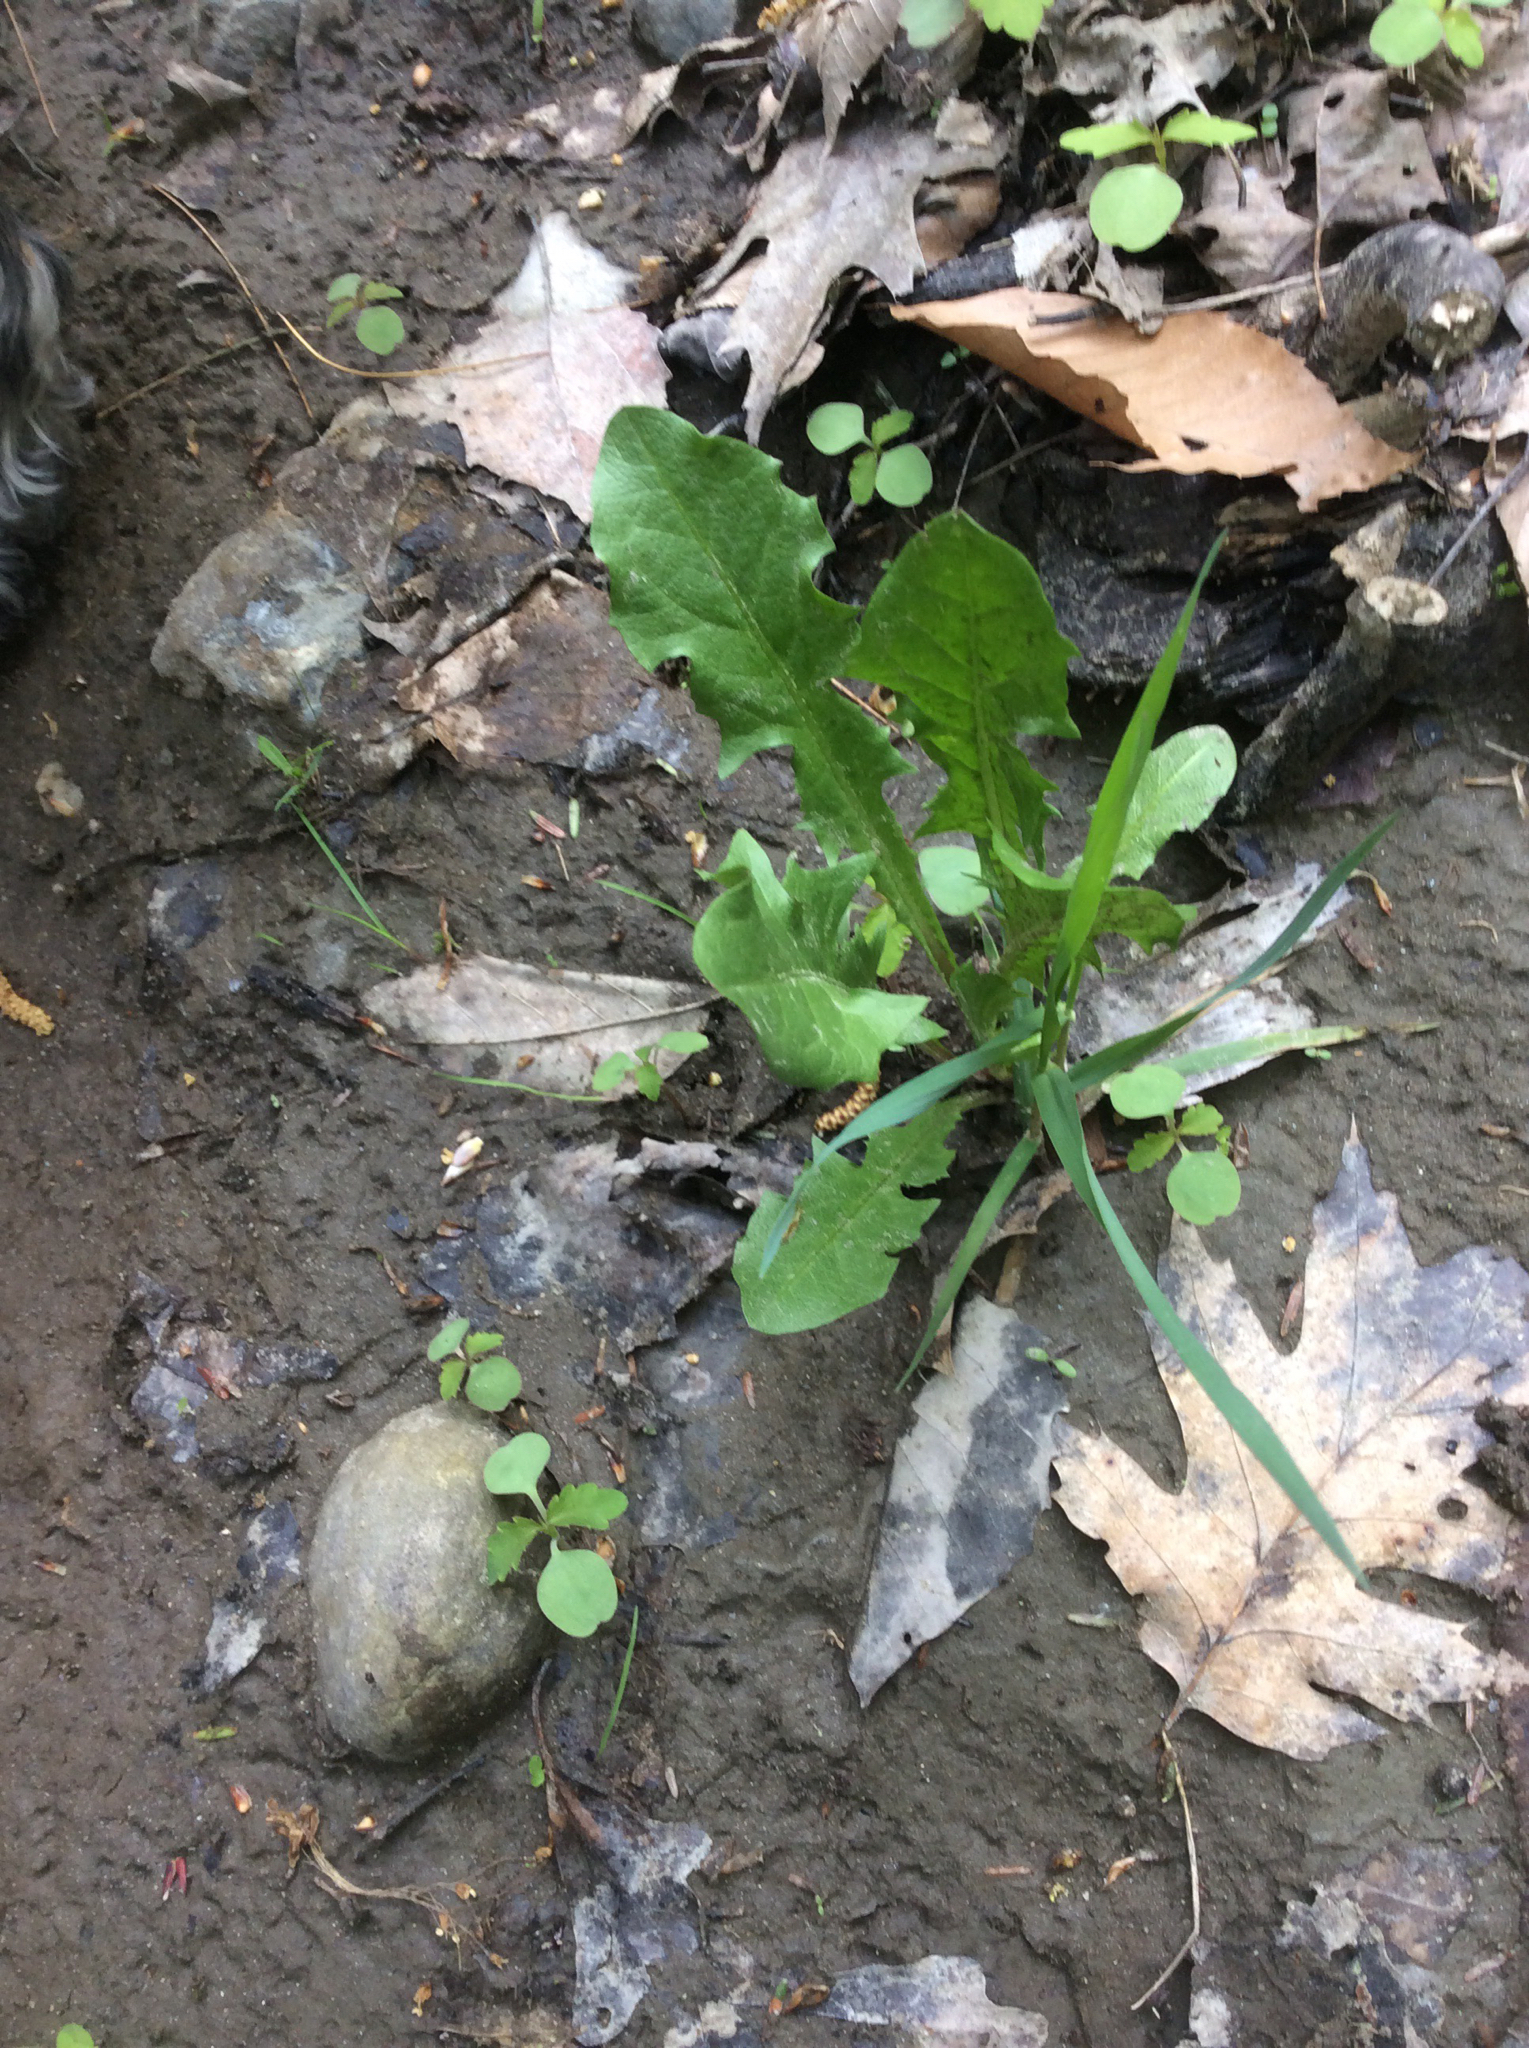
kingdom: Plantae
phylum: Tracheophyta
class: Magnoliopsida
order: Asterales
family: Asteraceae
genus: Taraxacum
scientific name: Taraxacum officinale
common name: Common dandelion
